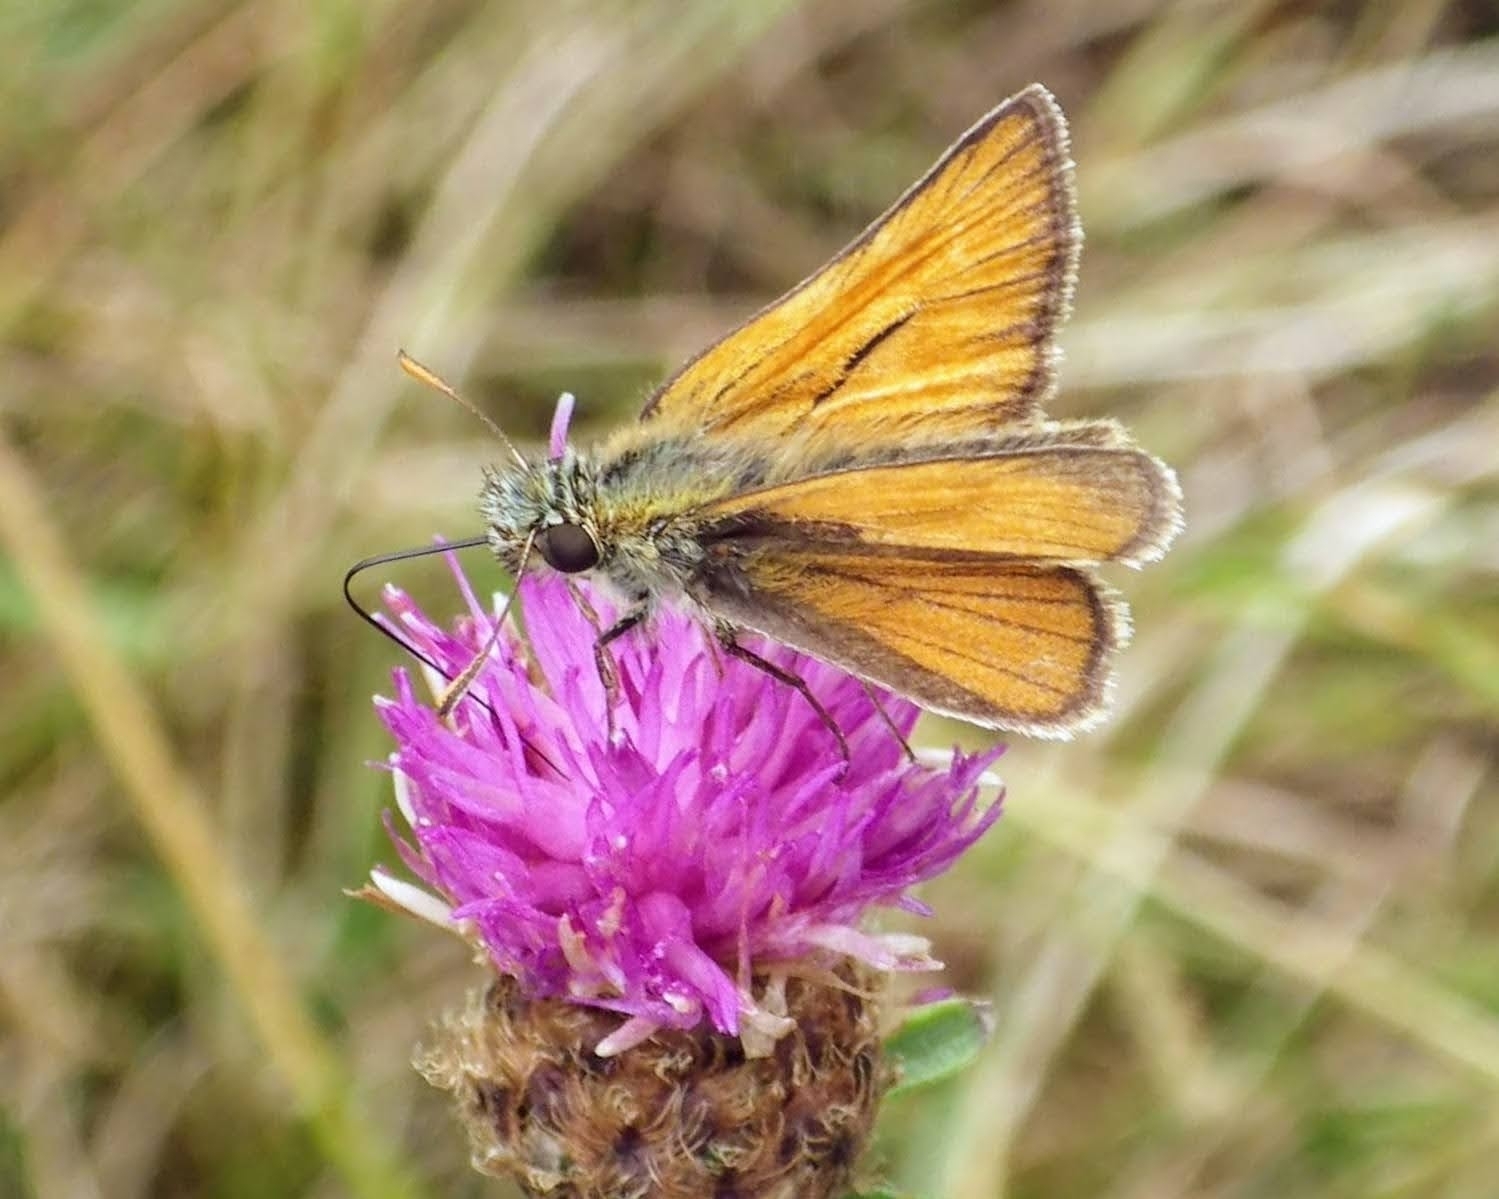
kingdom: Animalia
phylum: Arthropoda
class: Insecta
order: Lepidoptera
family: Hesperiidae
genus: Thymelicus
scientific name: Thymelicus sylvestris
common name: Small skipper
